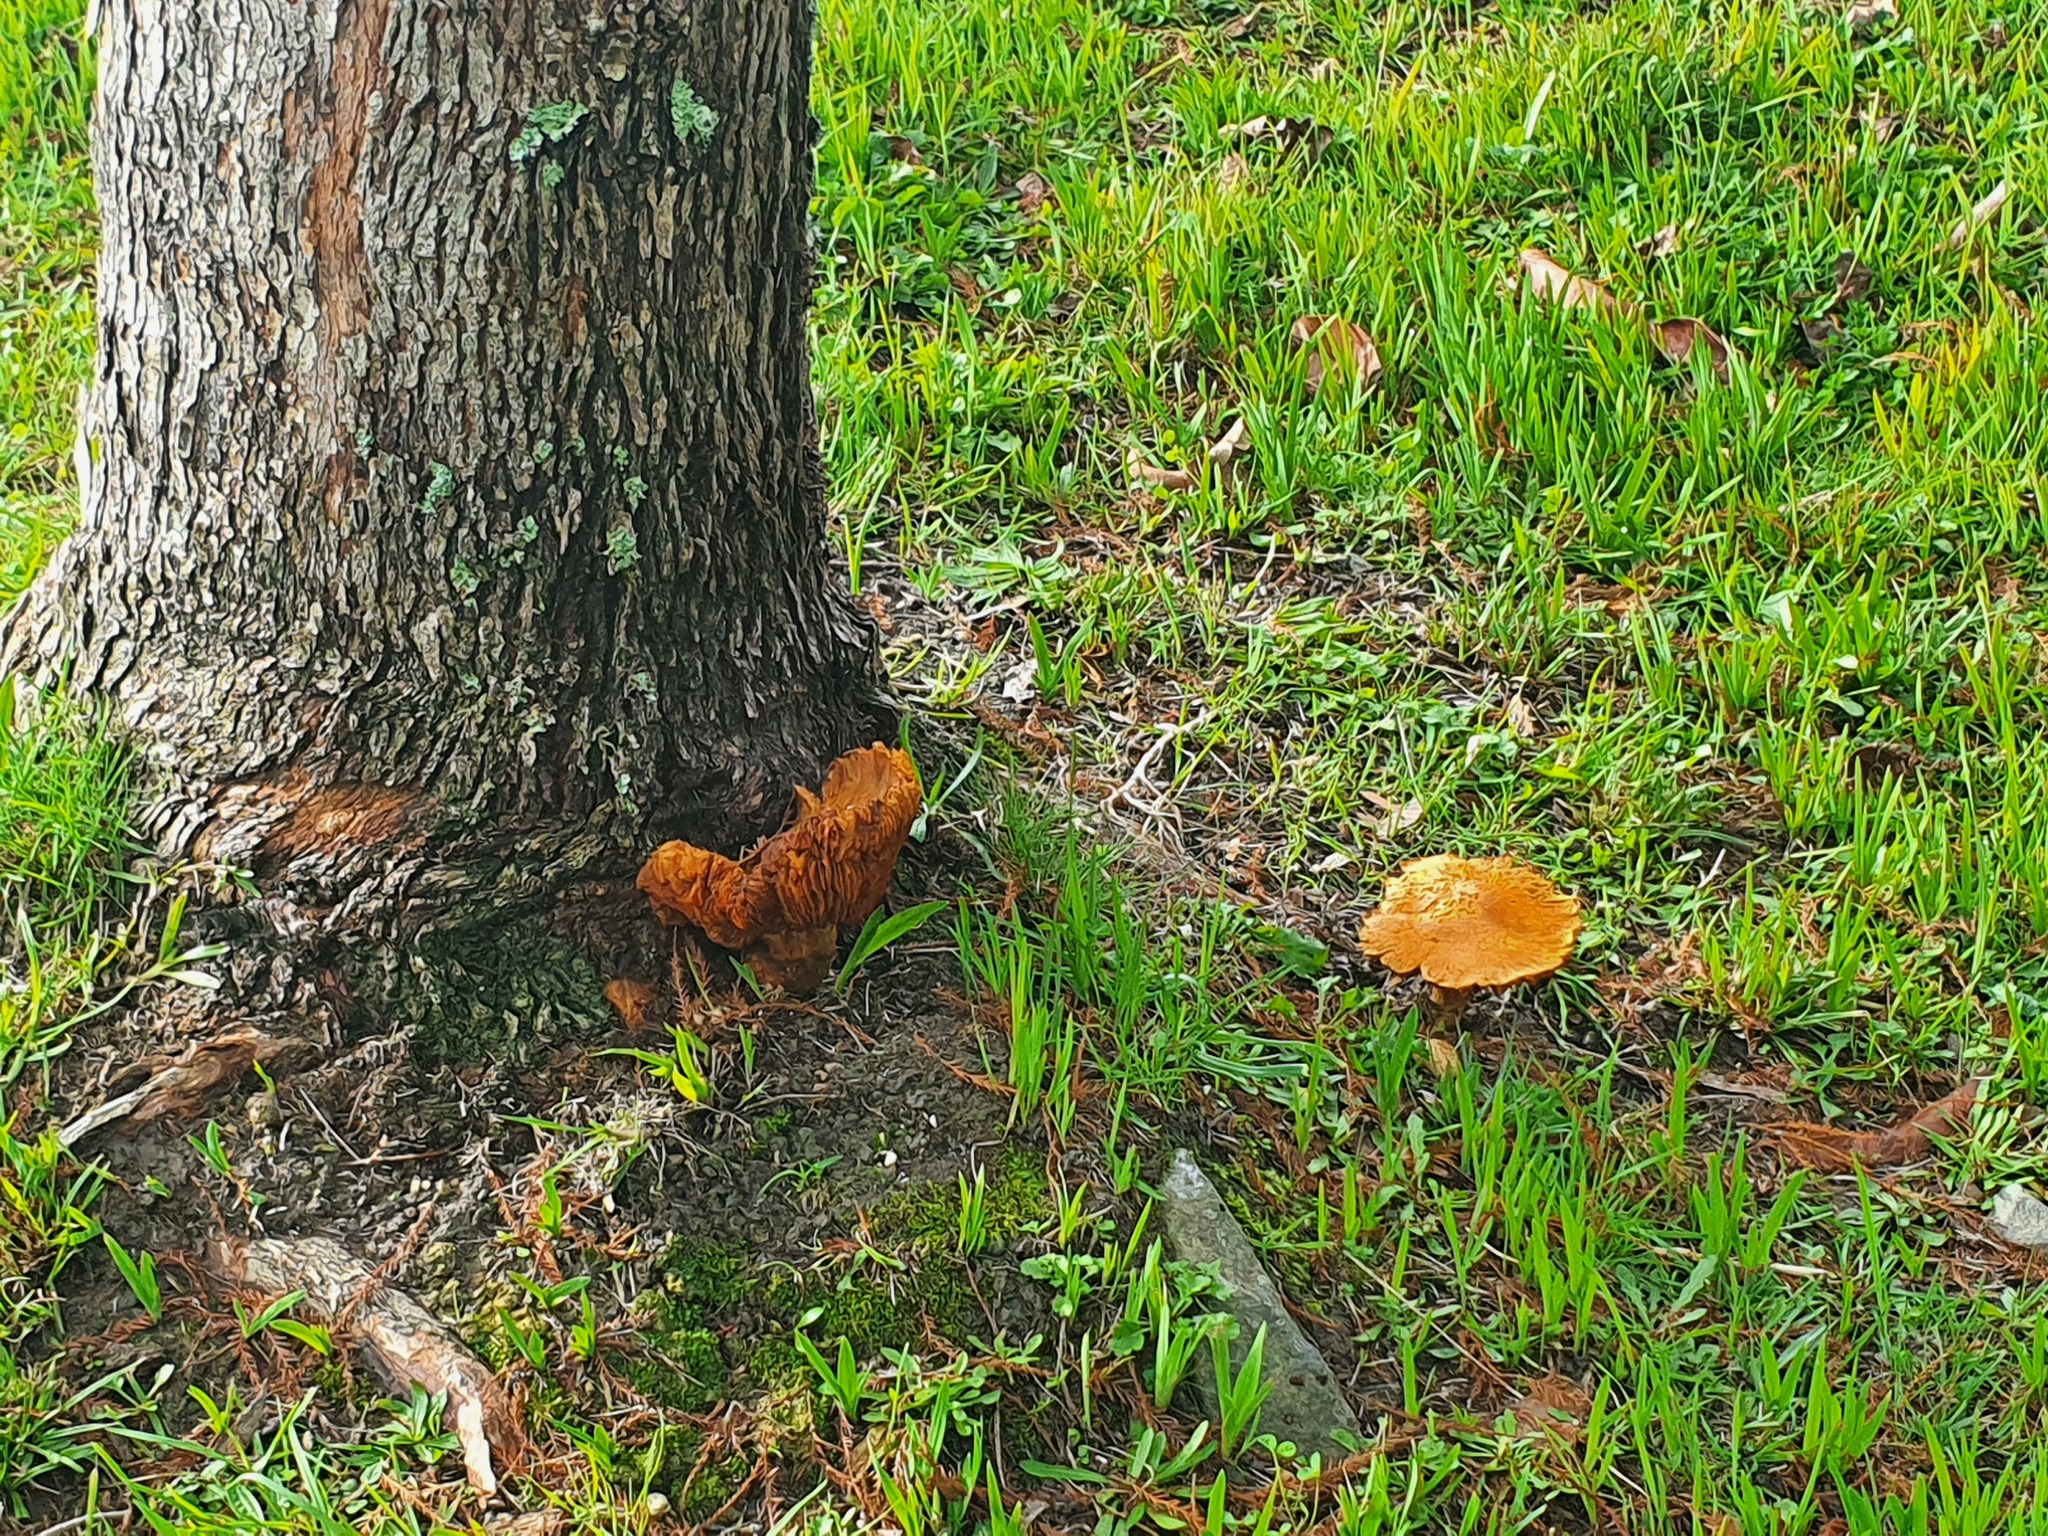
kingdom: Fungi
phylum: Basidiomycota
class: Agaricomycetes
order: Agaricales
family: Hymenogastraceae
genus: Gymnopilus
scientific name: Gymnopilus junonius
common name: Spectacular rustgill
